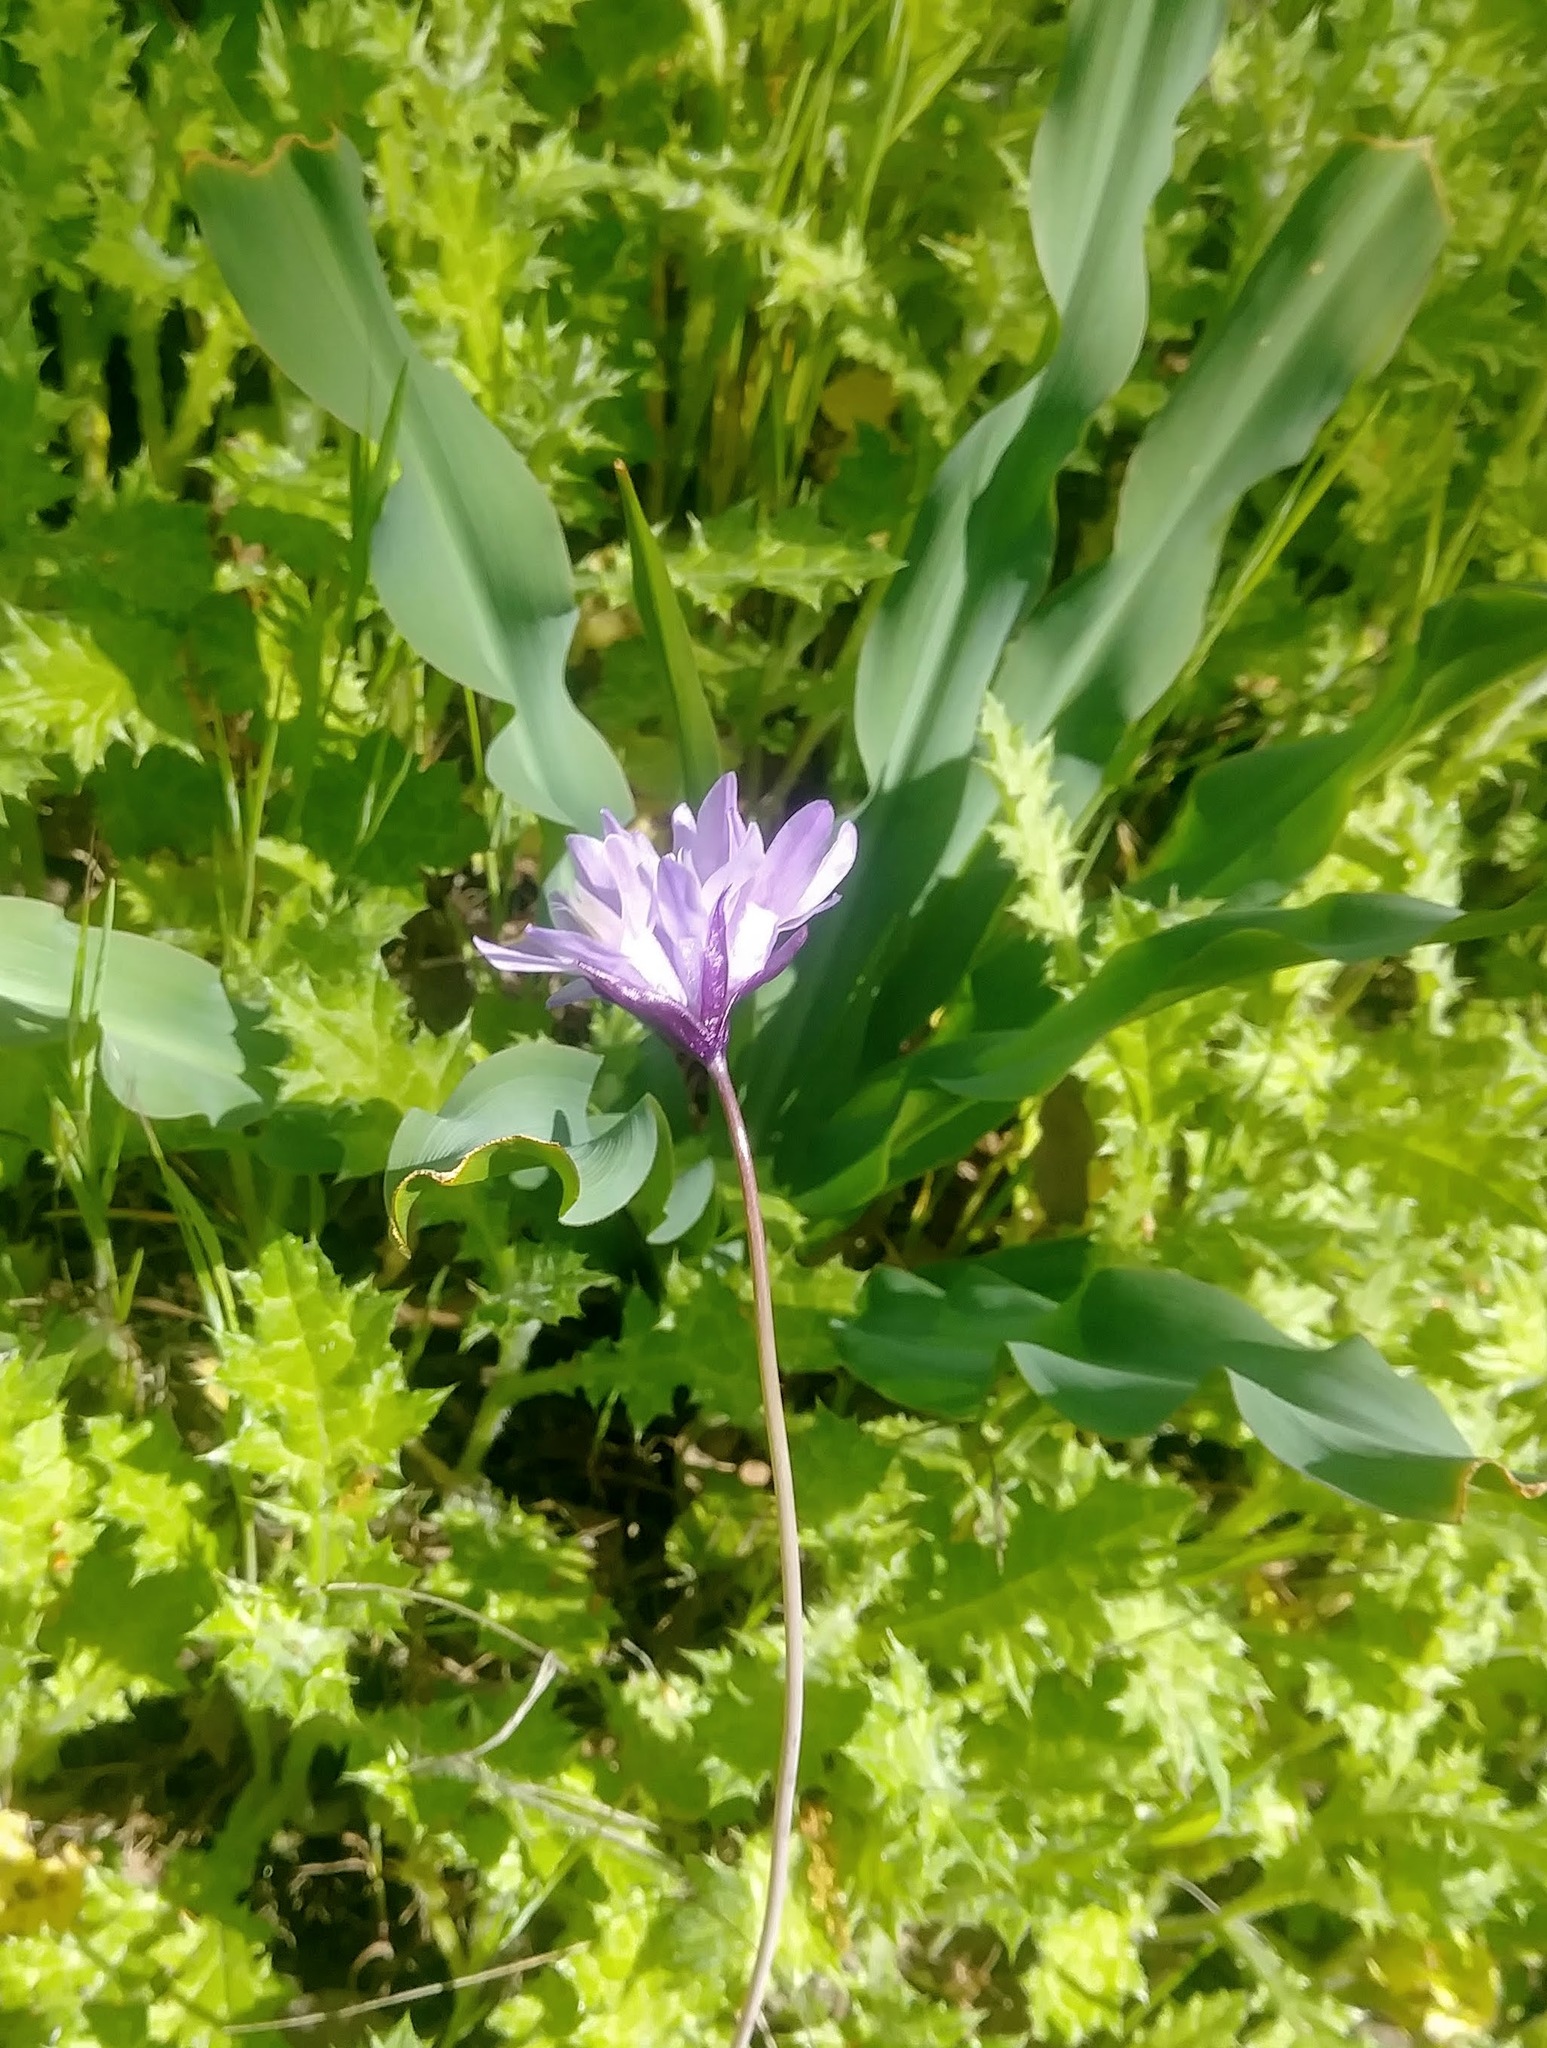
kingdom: Plantae
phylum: Tracheophyta
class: Liliopsida
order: Asparagales
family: Asparagaceae
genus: Dipterostemon
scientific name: Dipterostemon capitatus
